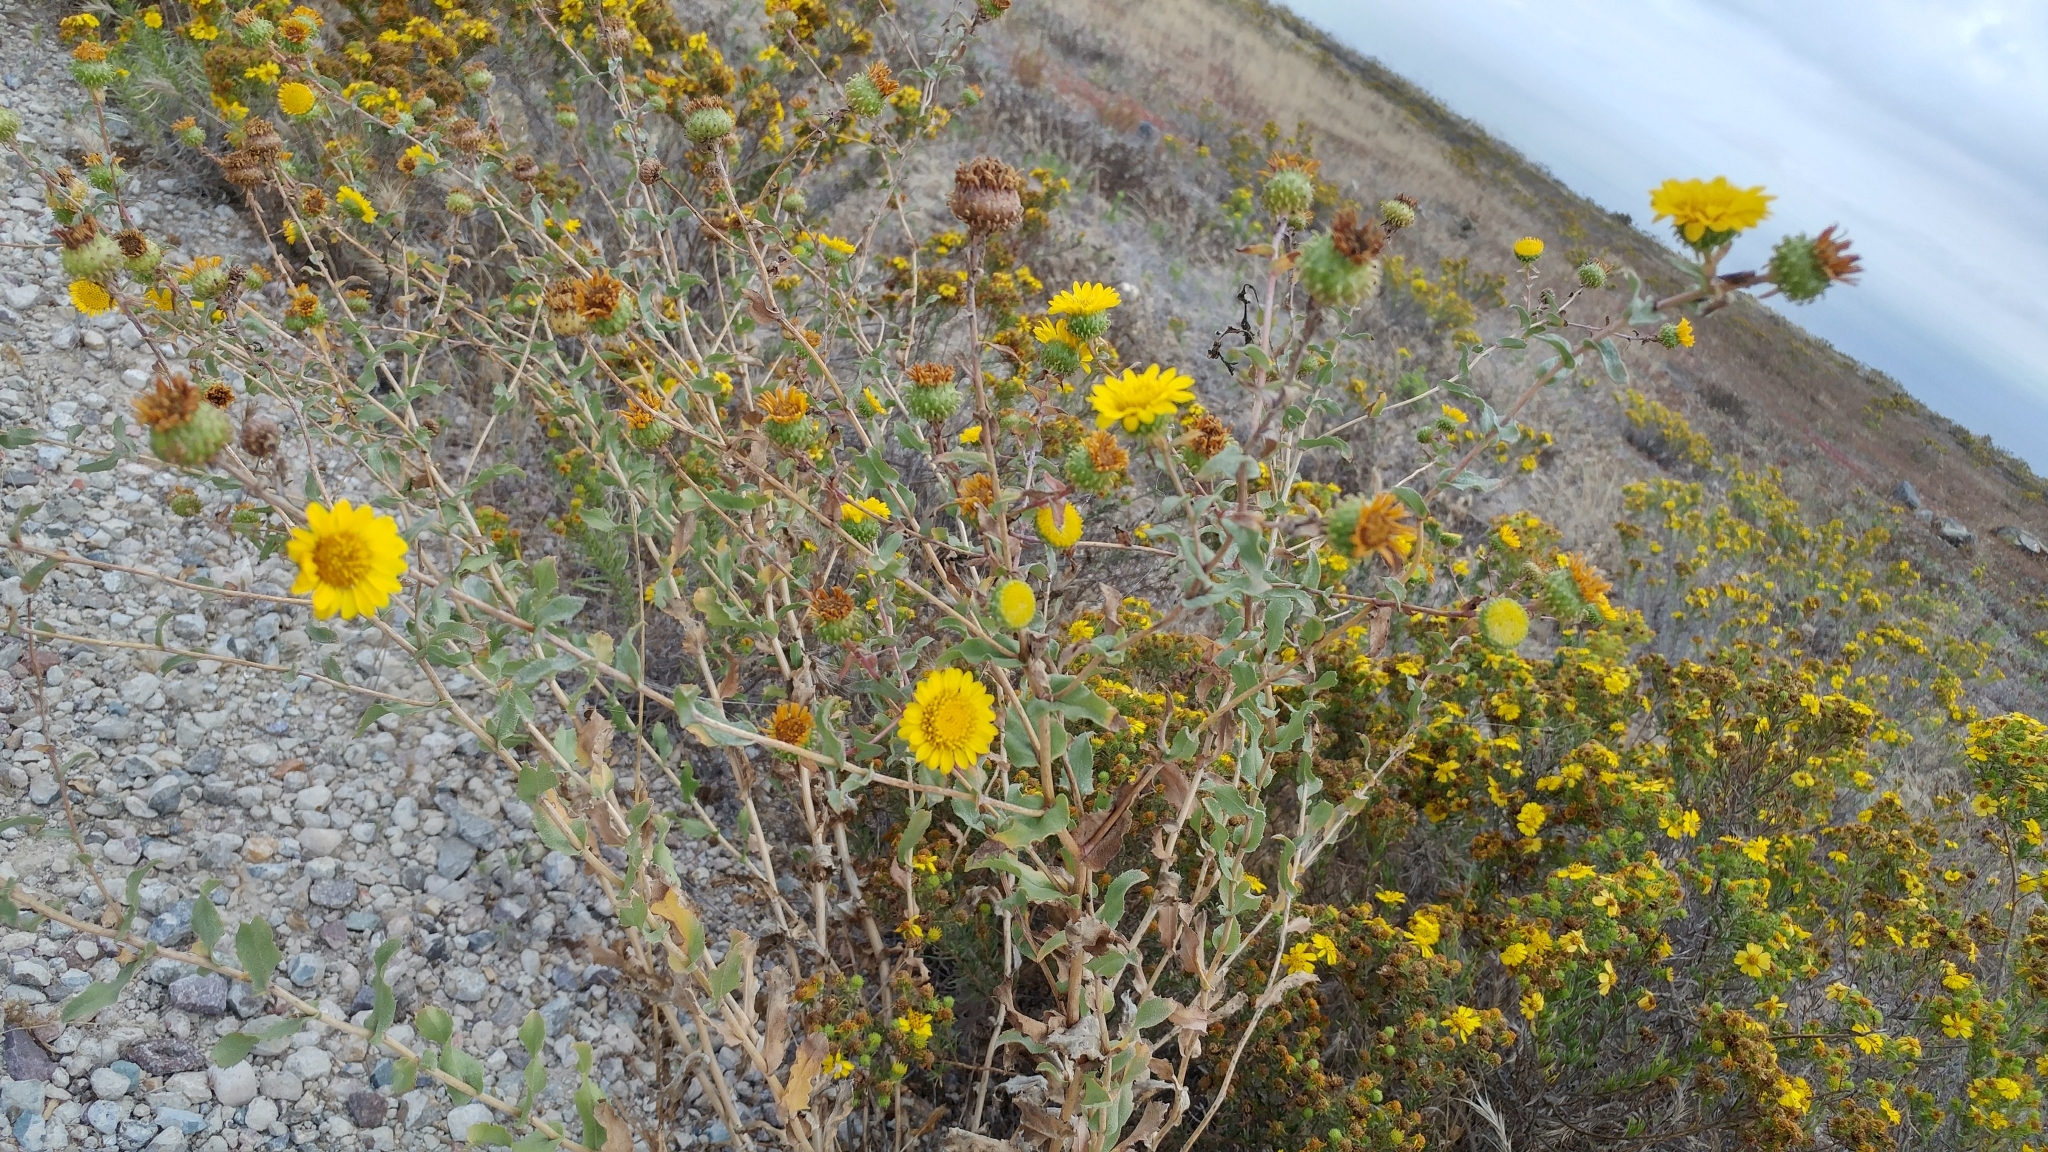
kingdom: Plantae
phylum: Tracheophyta
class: Magnoliopsida
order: Asterales
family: Asteraceae
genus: Grindelia
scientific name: Grindelia hirsutula
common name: Hairy gumweed
